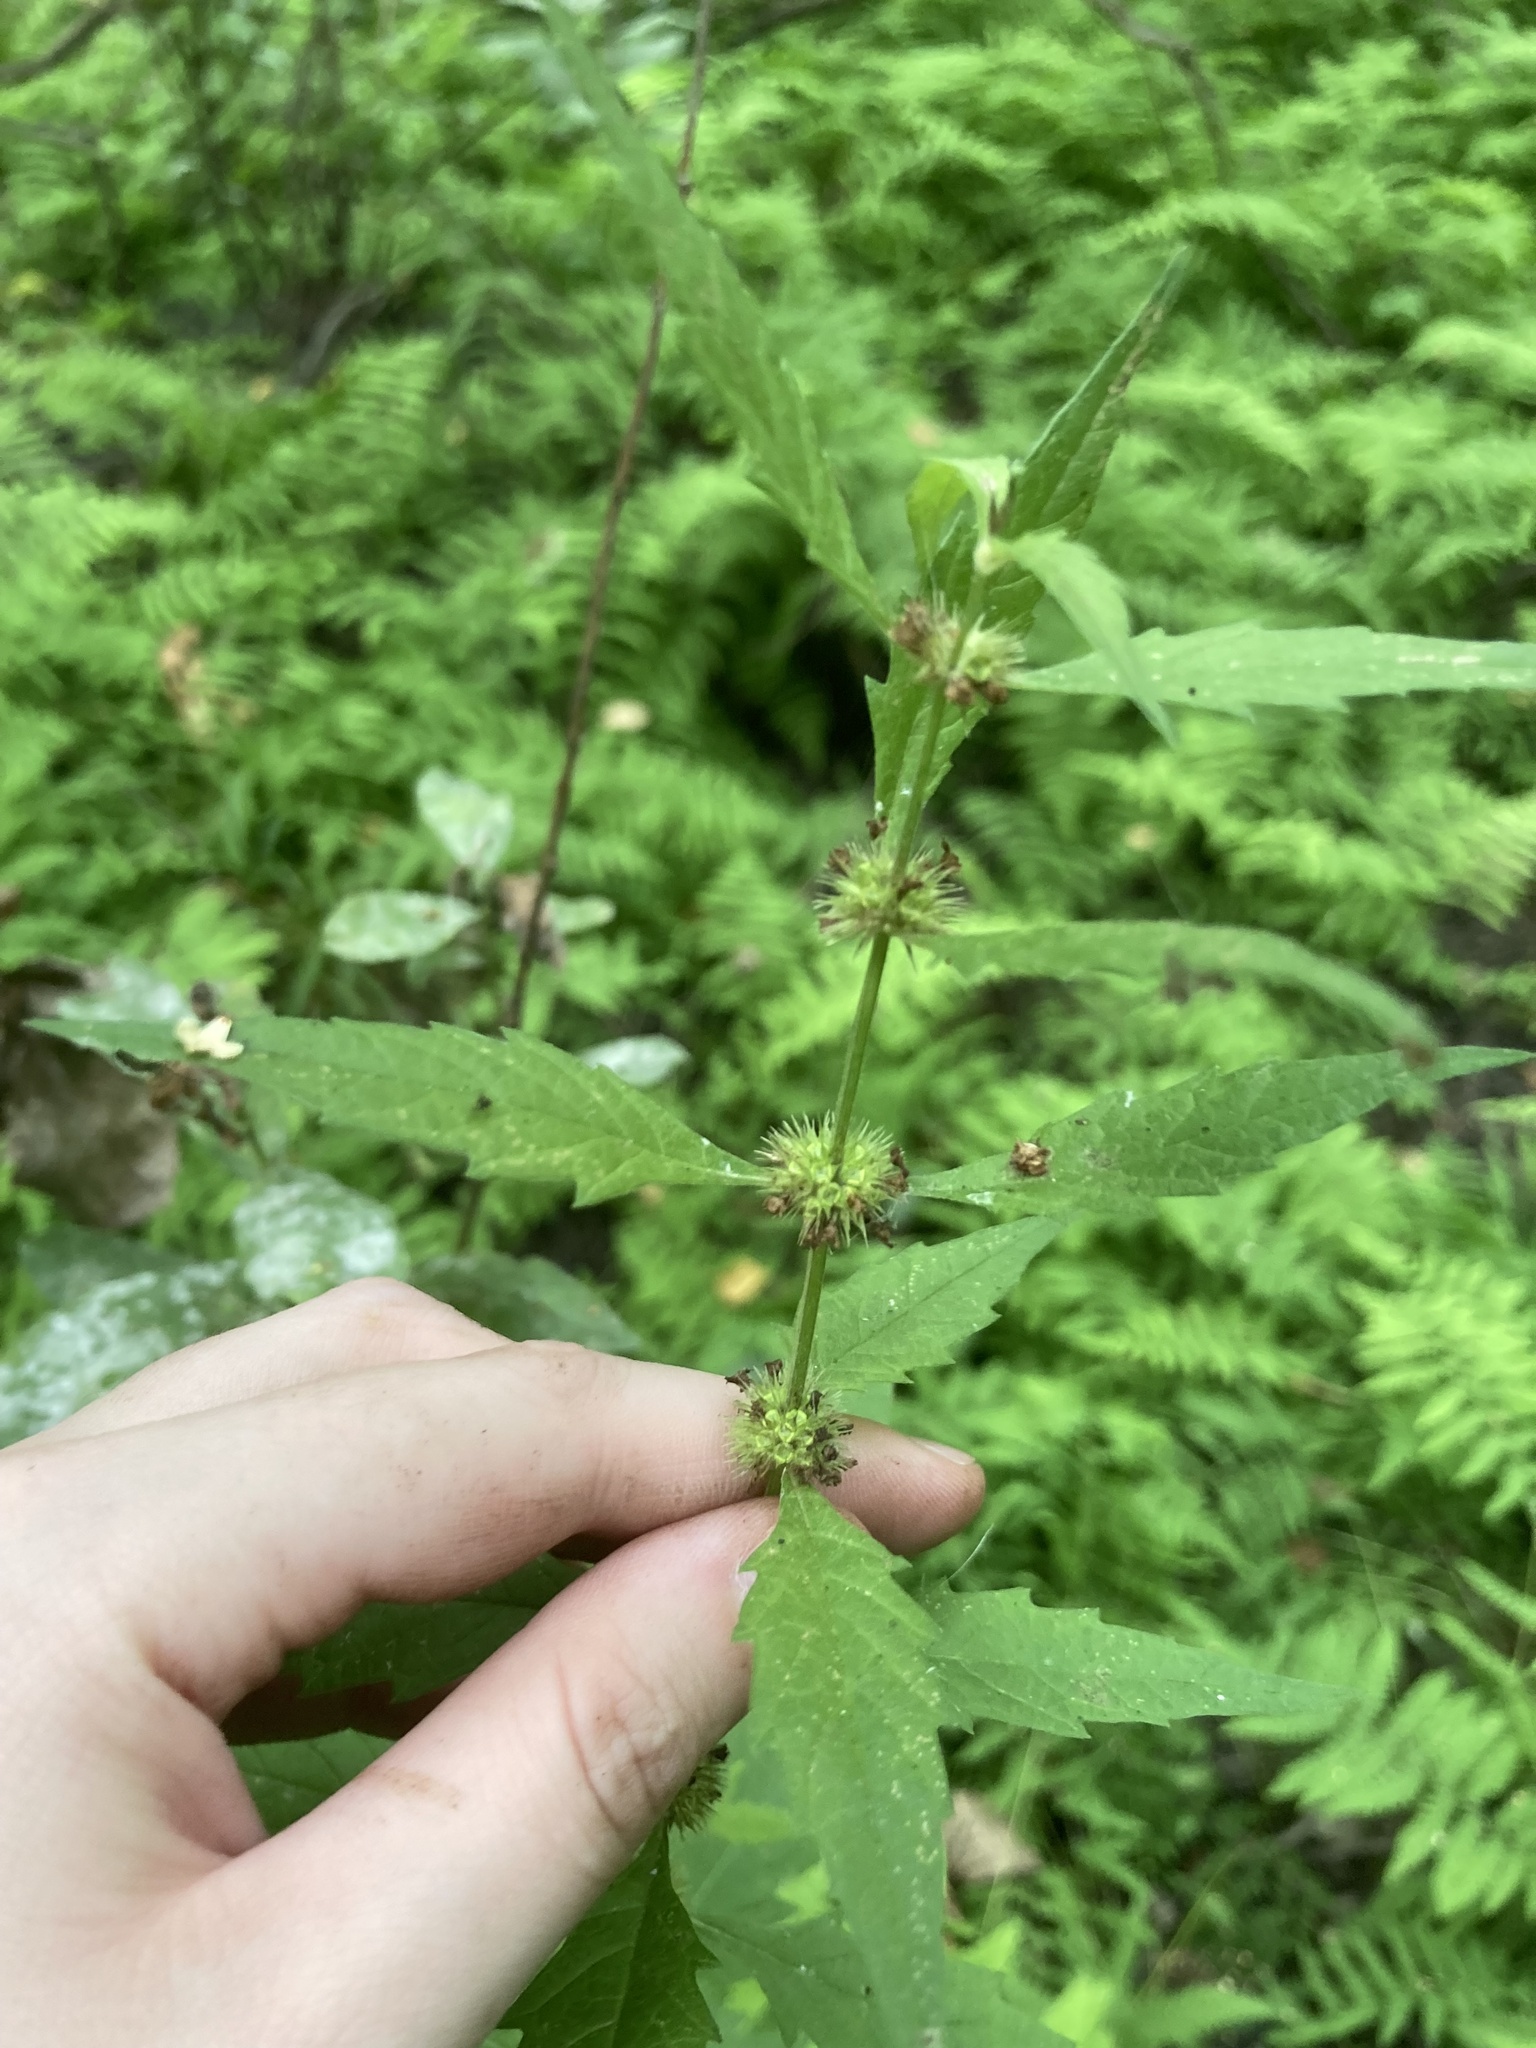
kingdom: Plantae
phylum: Tracheophyta
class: Magnoliopsida
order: Lamiales
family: Lamiaceae
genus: Lycopus
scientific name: Lycopus europaeus
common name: European bugleweed
